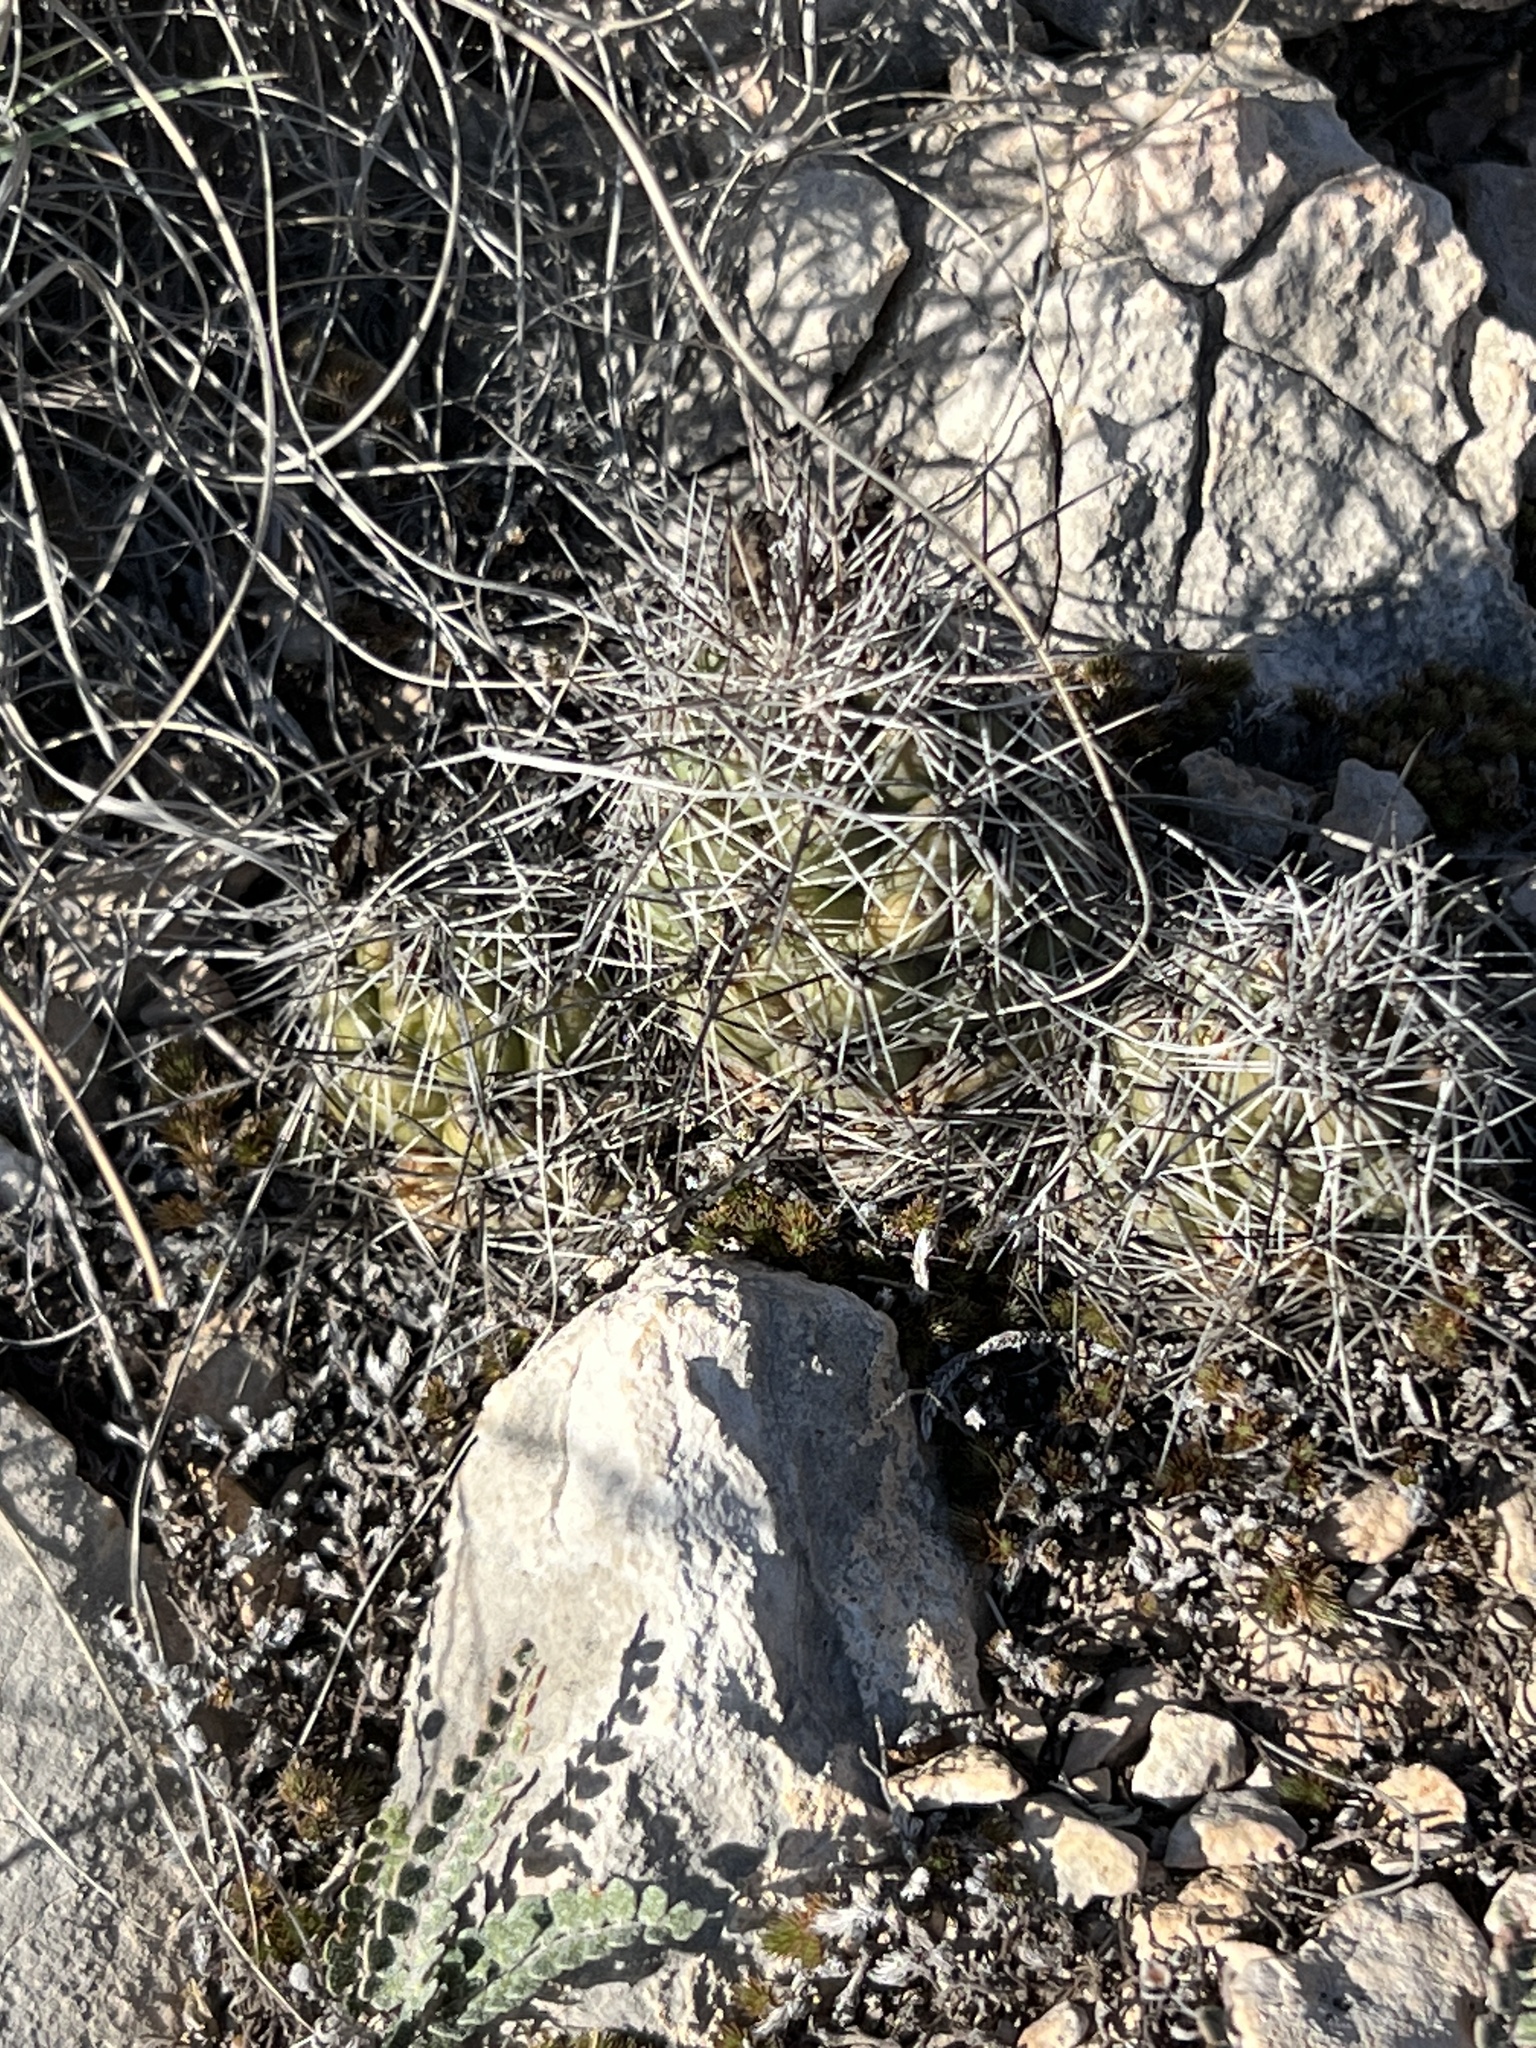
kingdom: Plantae
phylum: Tracheophyta
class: Magnoliopsida
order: Caryophyllales
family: Cactaceae
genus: Cochemiea
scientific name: Cochemiea conoidea
